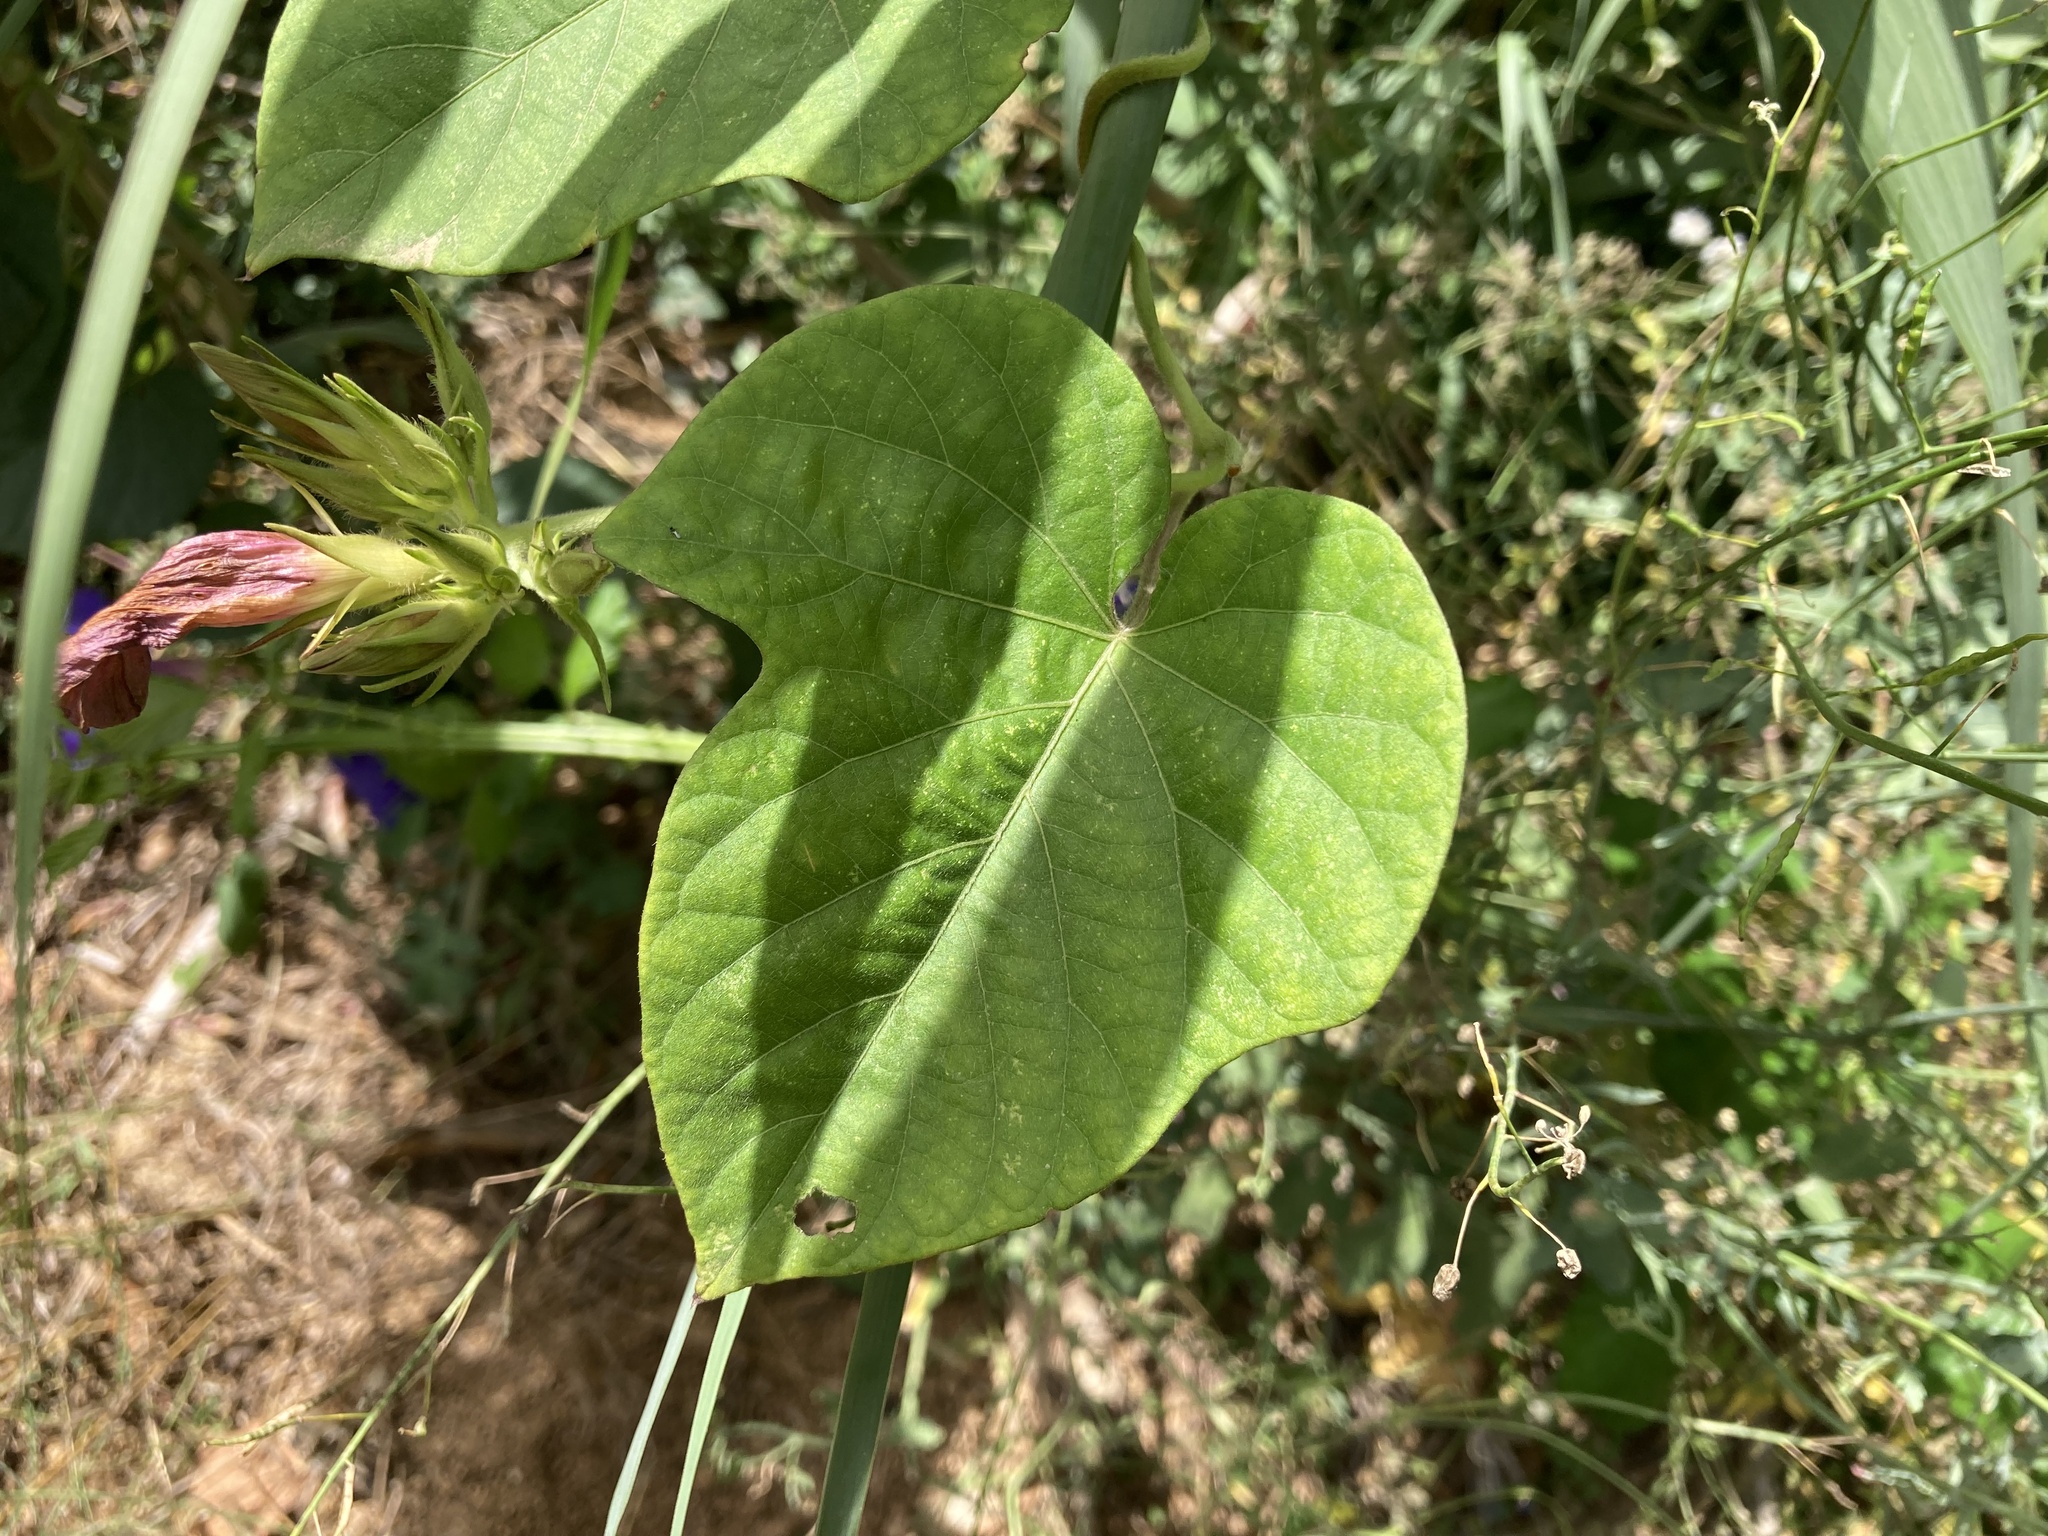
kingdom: Plantae
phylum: Tracheophyta
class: Magnoliopsida
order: Solanales
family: Convolvulaceae
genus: Ipomoea
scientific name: Ipomoea indica
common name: Blue dawnflower
